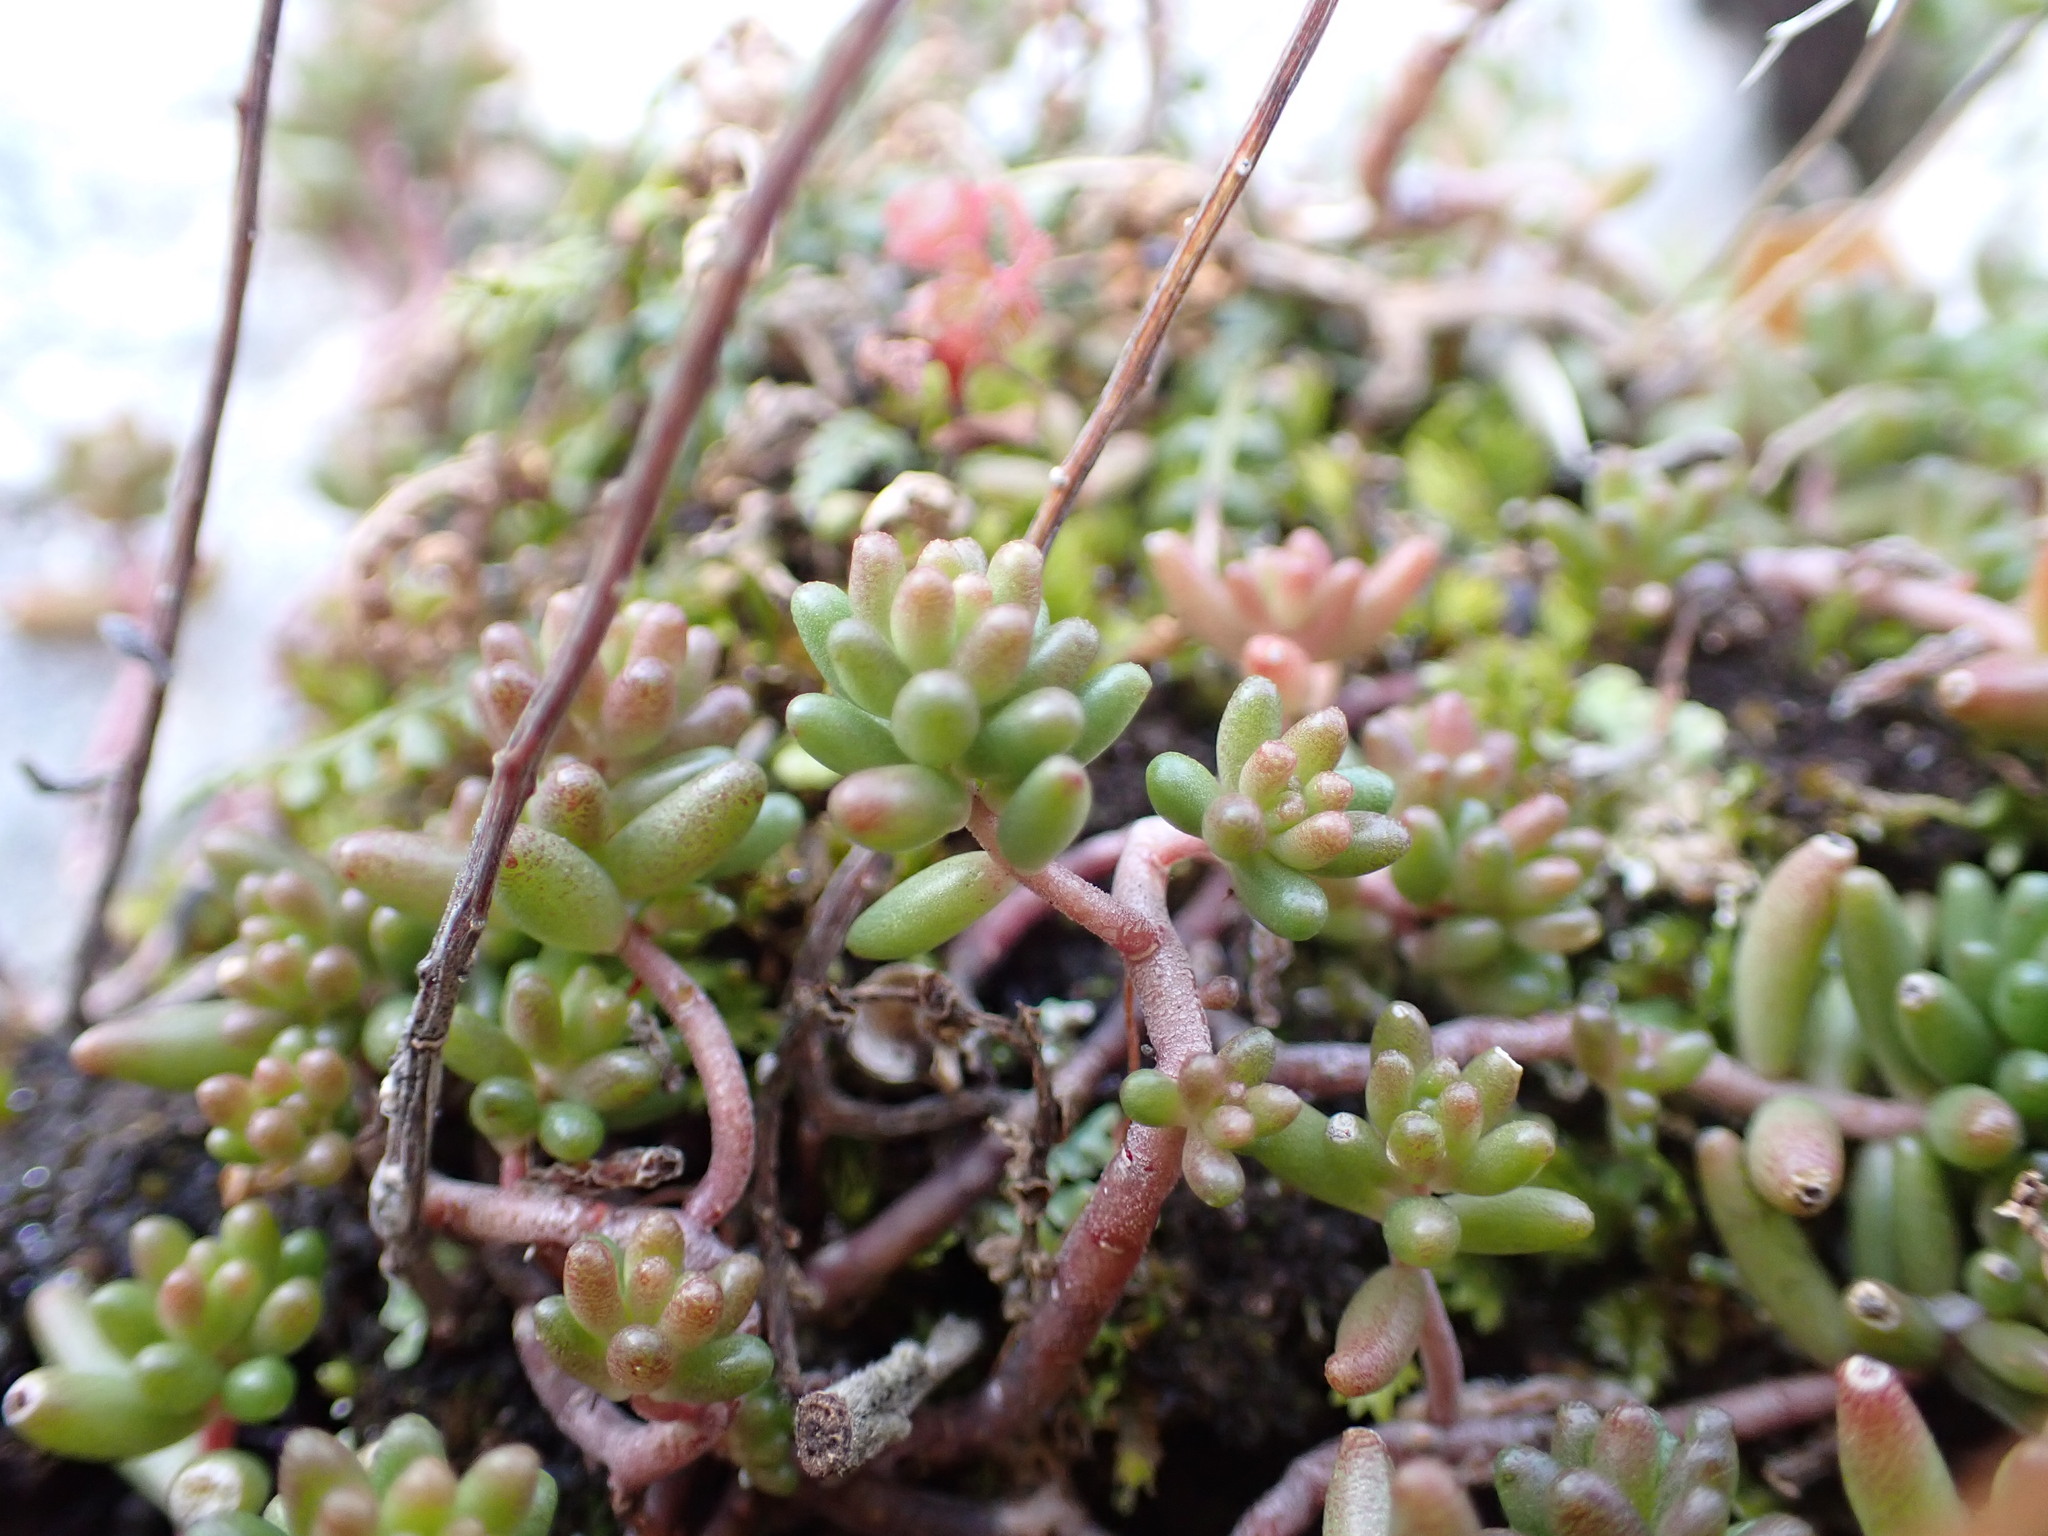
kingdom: Plantae
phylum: Tracheophyta
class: Magnoliopsida
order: Saxifragales
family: Crassulaceae
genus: Sedum
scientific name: Sedum album
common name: White stonecrop
